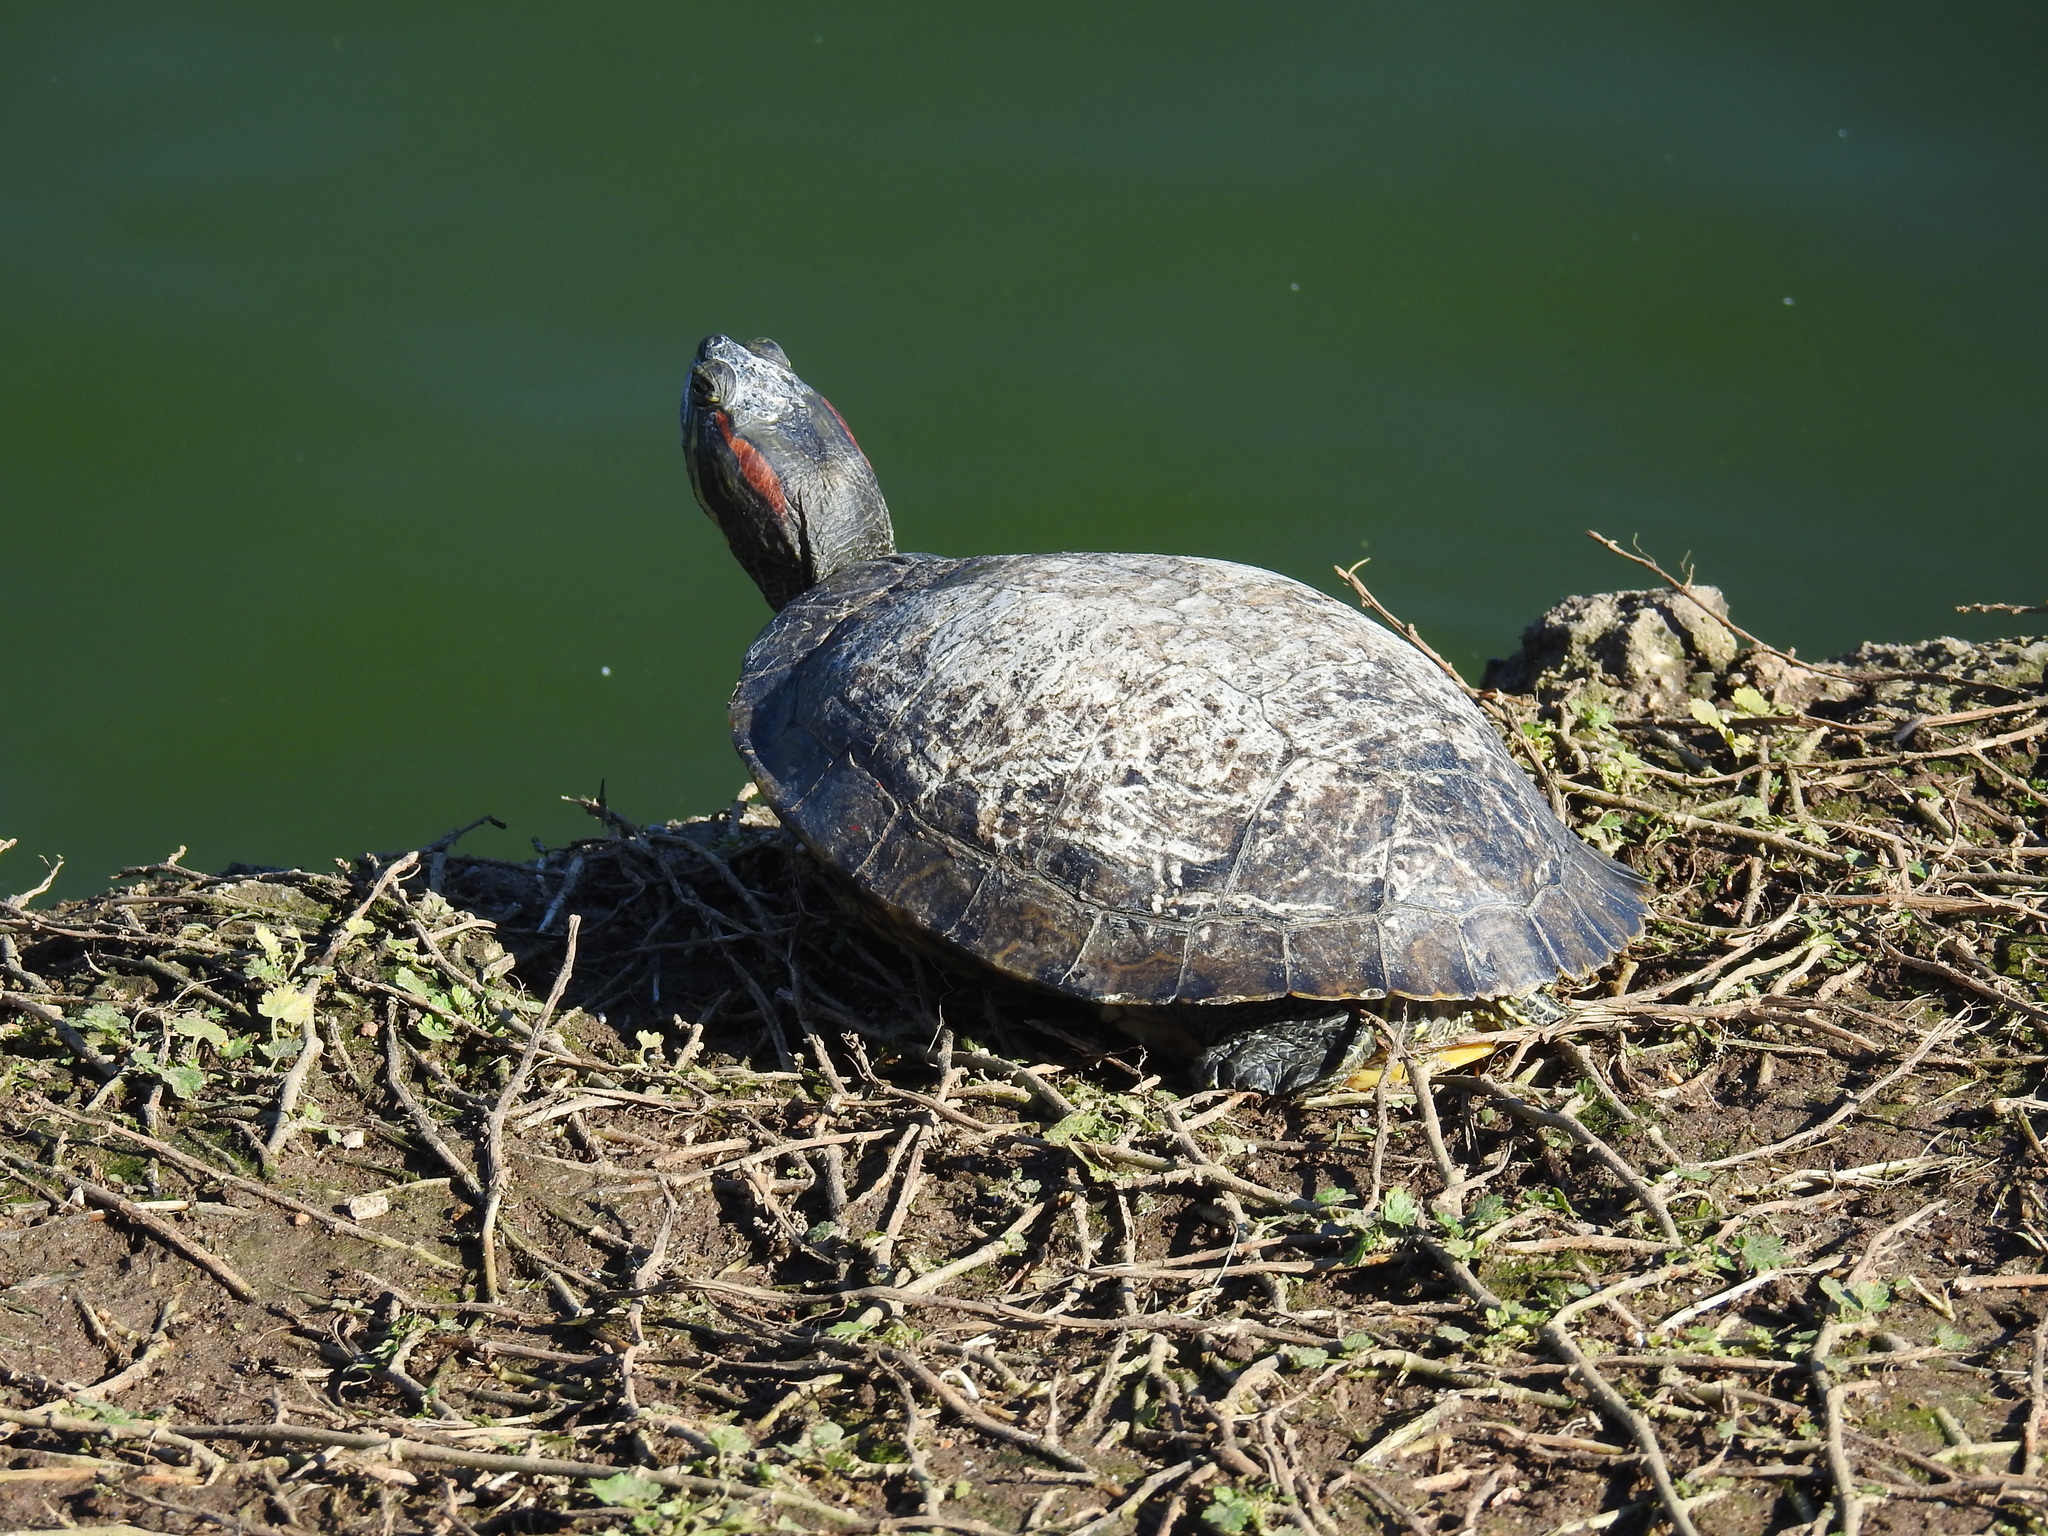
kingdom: Animalia
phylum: Chordata
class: Testudines
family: Emydidae
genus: Trachemys
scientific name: Trachemys scripta
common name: Slider
